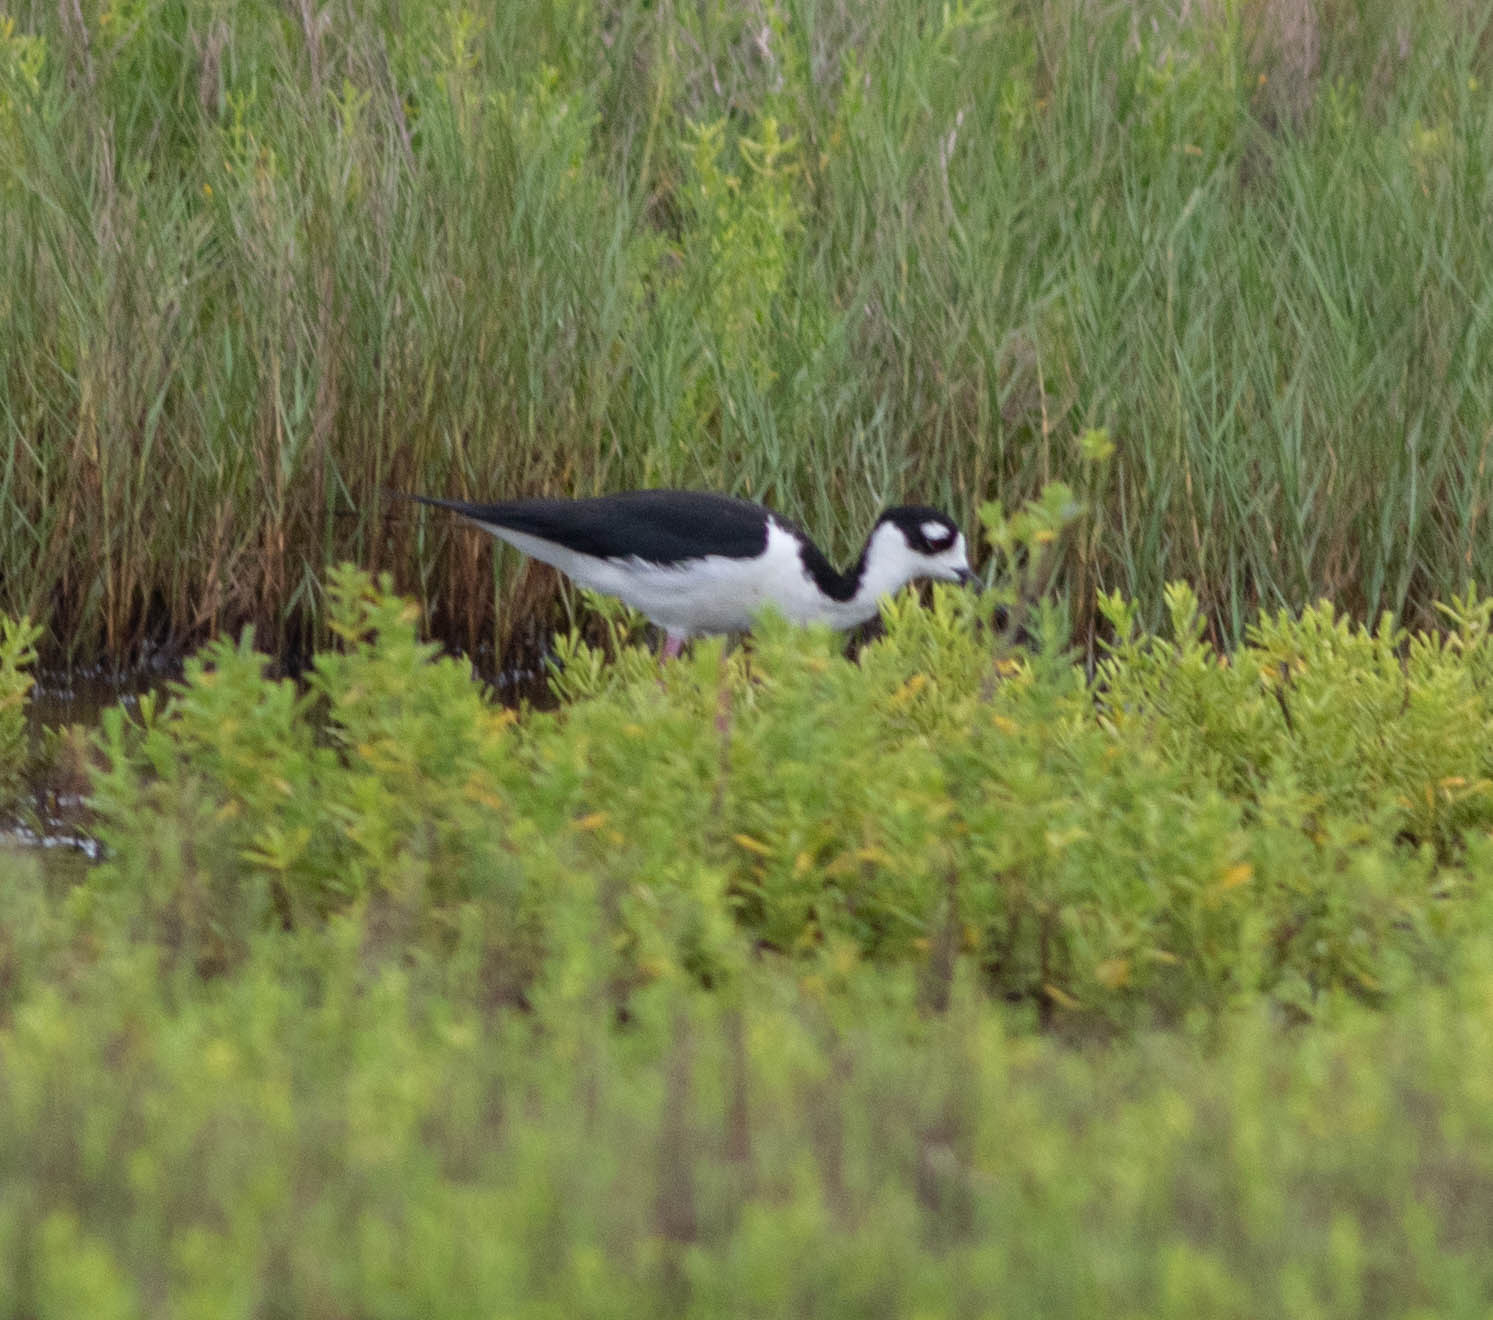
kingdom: Animalia
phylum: Chordata
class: Aves
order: Charadriiformes
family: Recurvirostridae
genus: Himantopus
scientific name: Himantopus mexicanus
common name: Black-necked stilt
